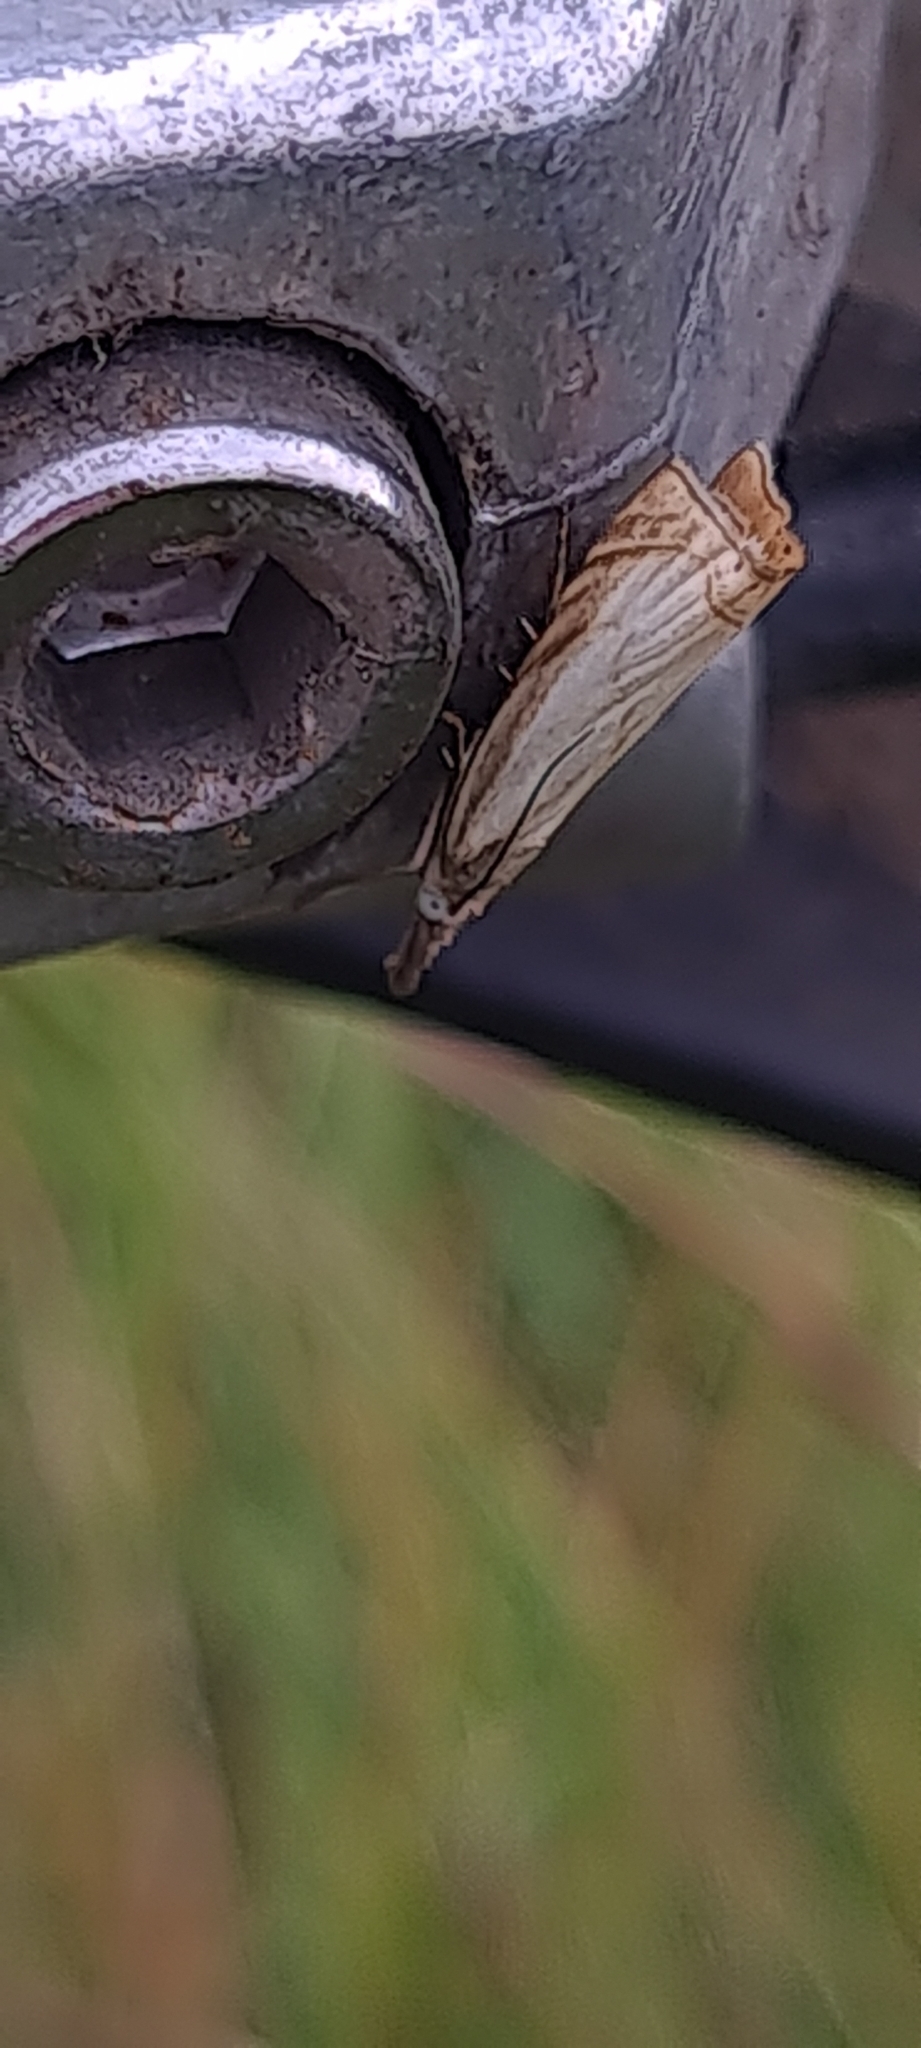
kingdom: Animalia
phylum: Arthropoda
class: Insecta
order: Lepidoptera
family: Crambidae
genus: Chrysoteuchia
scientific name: Chrysoteuchia culmella
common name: Garden grass-veneer
